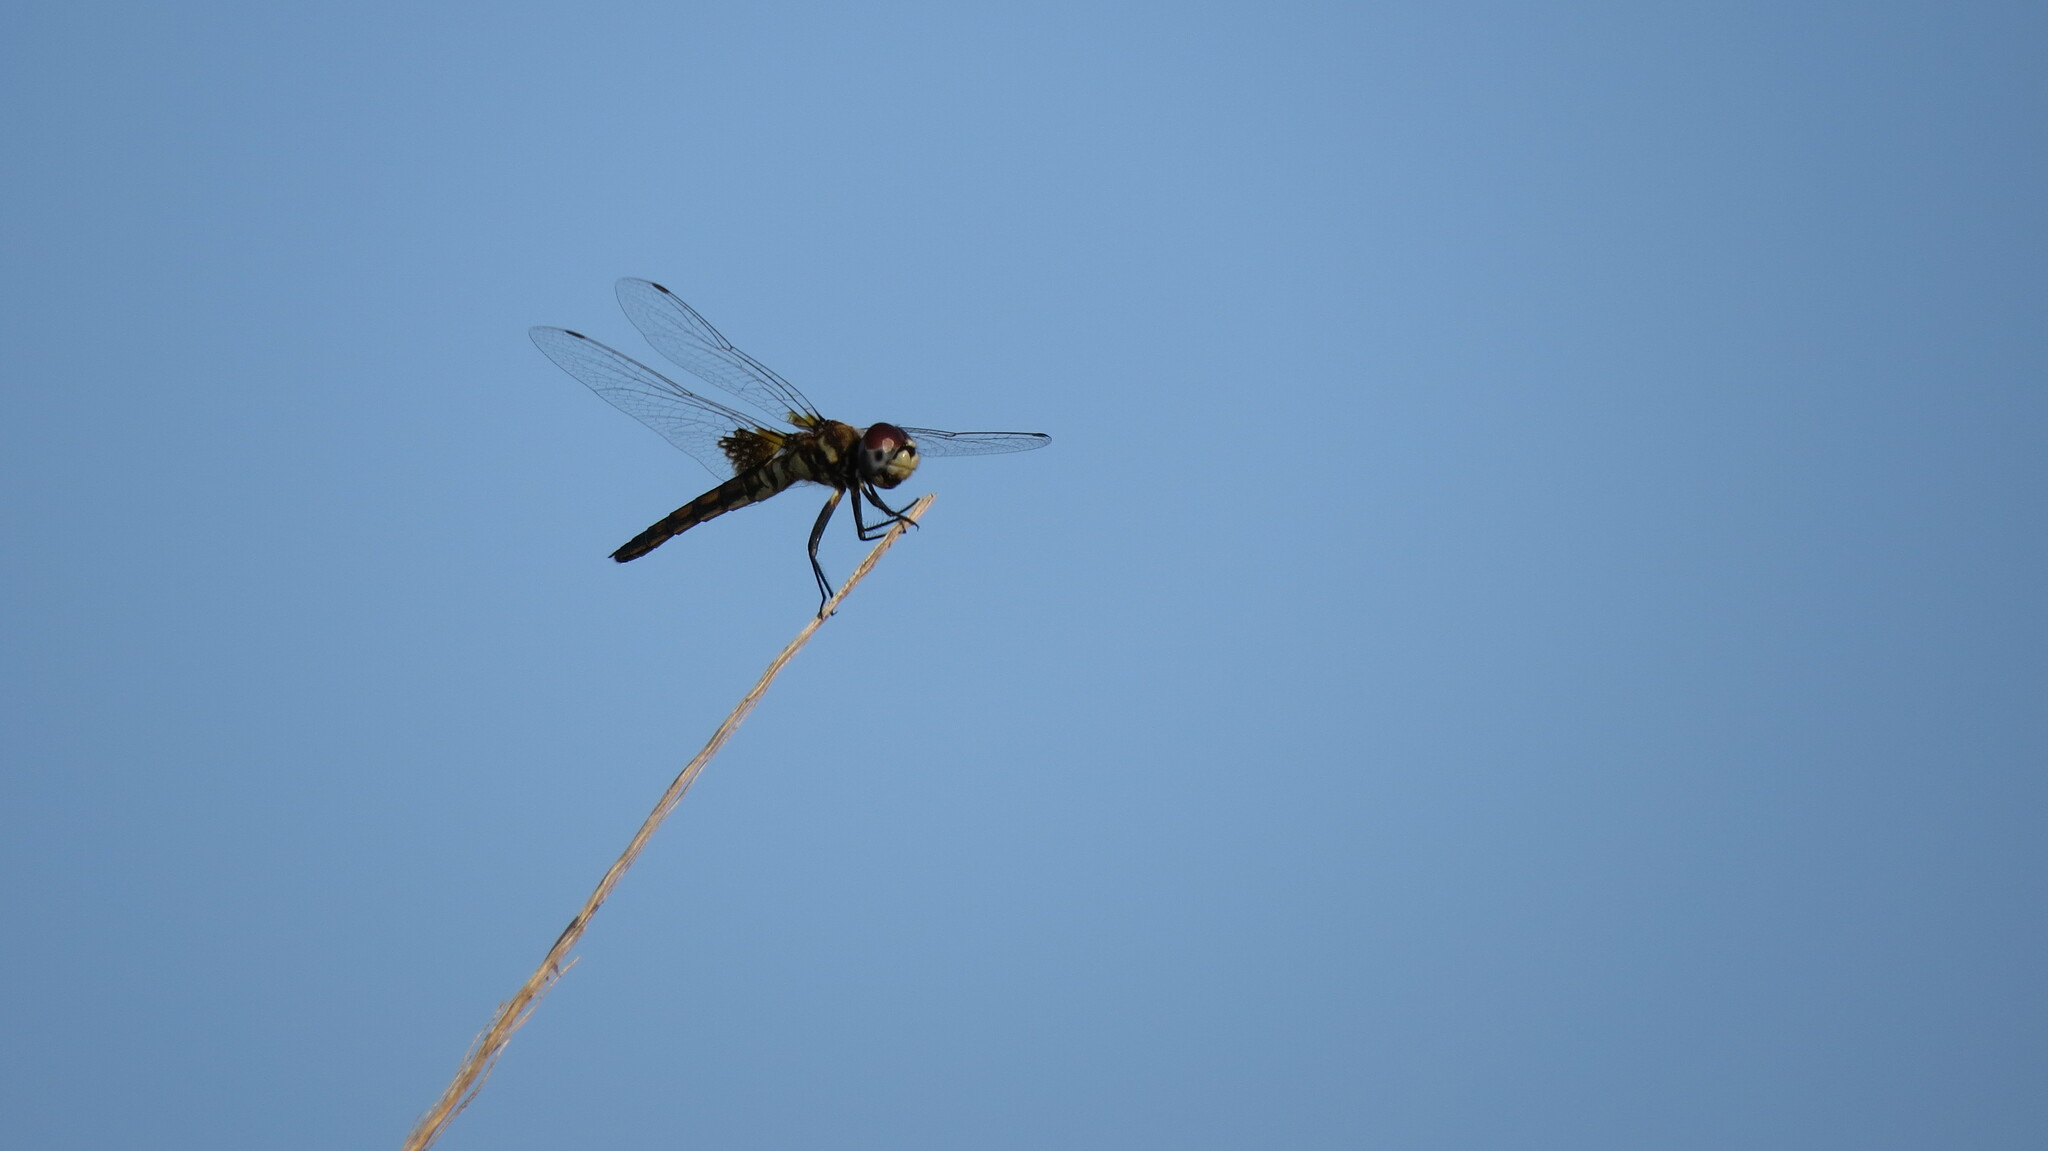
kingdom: Animalia
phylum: Arthropoda
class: Insecta
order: Odonata
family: Libellulidae
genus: Macrodiplax
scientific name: Macrodiplax balteata
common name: Marl pennant
